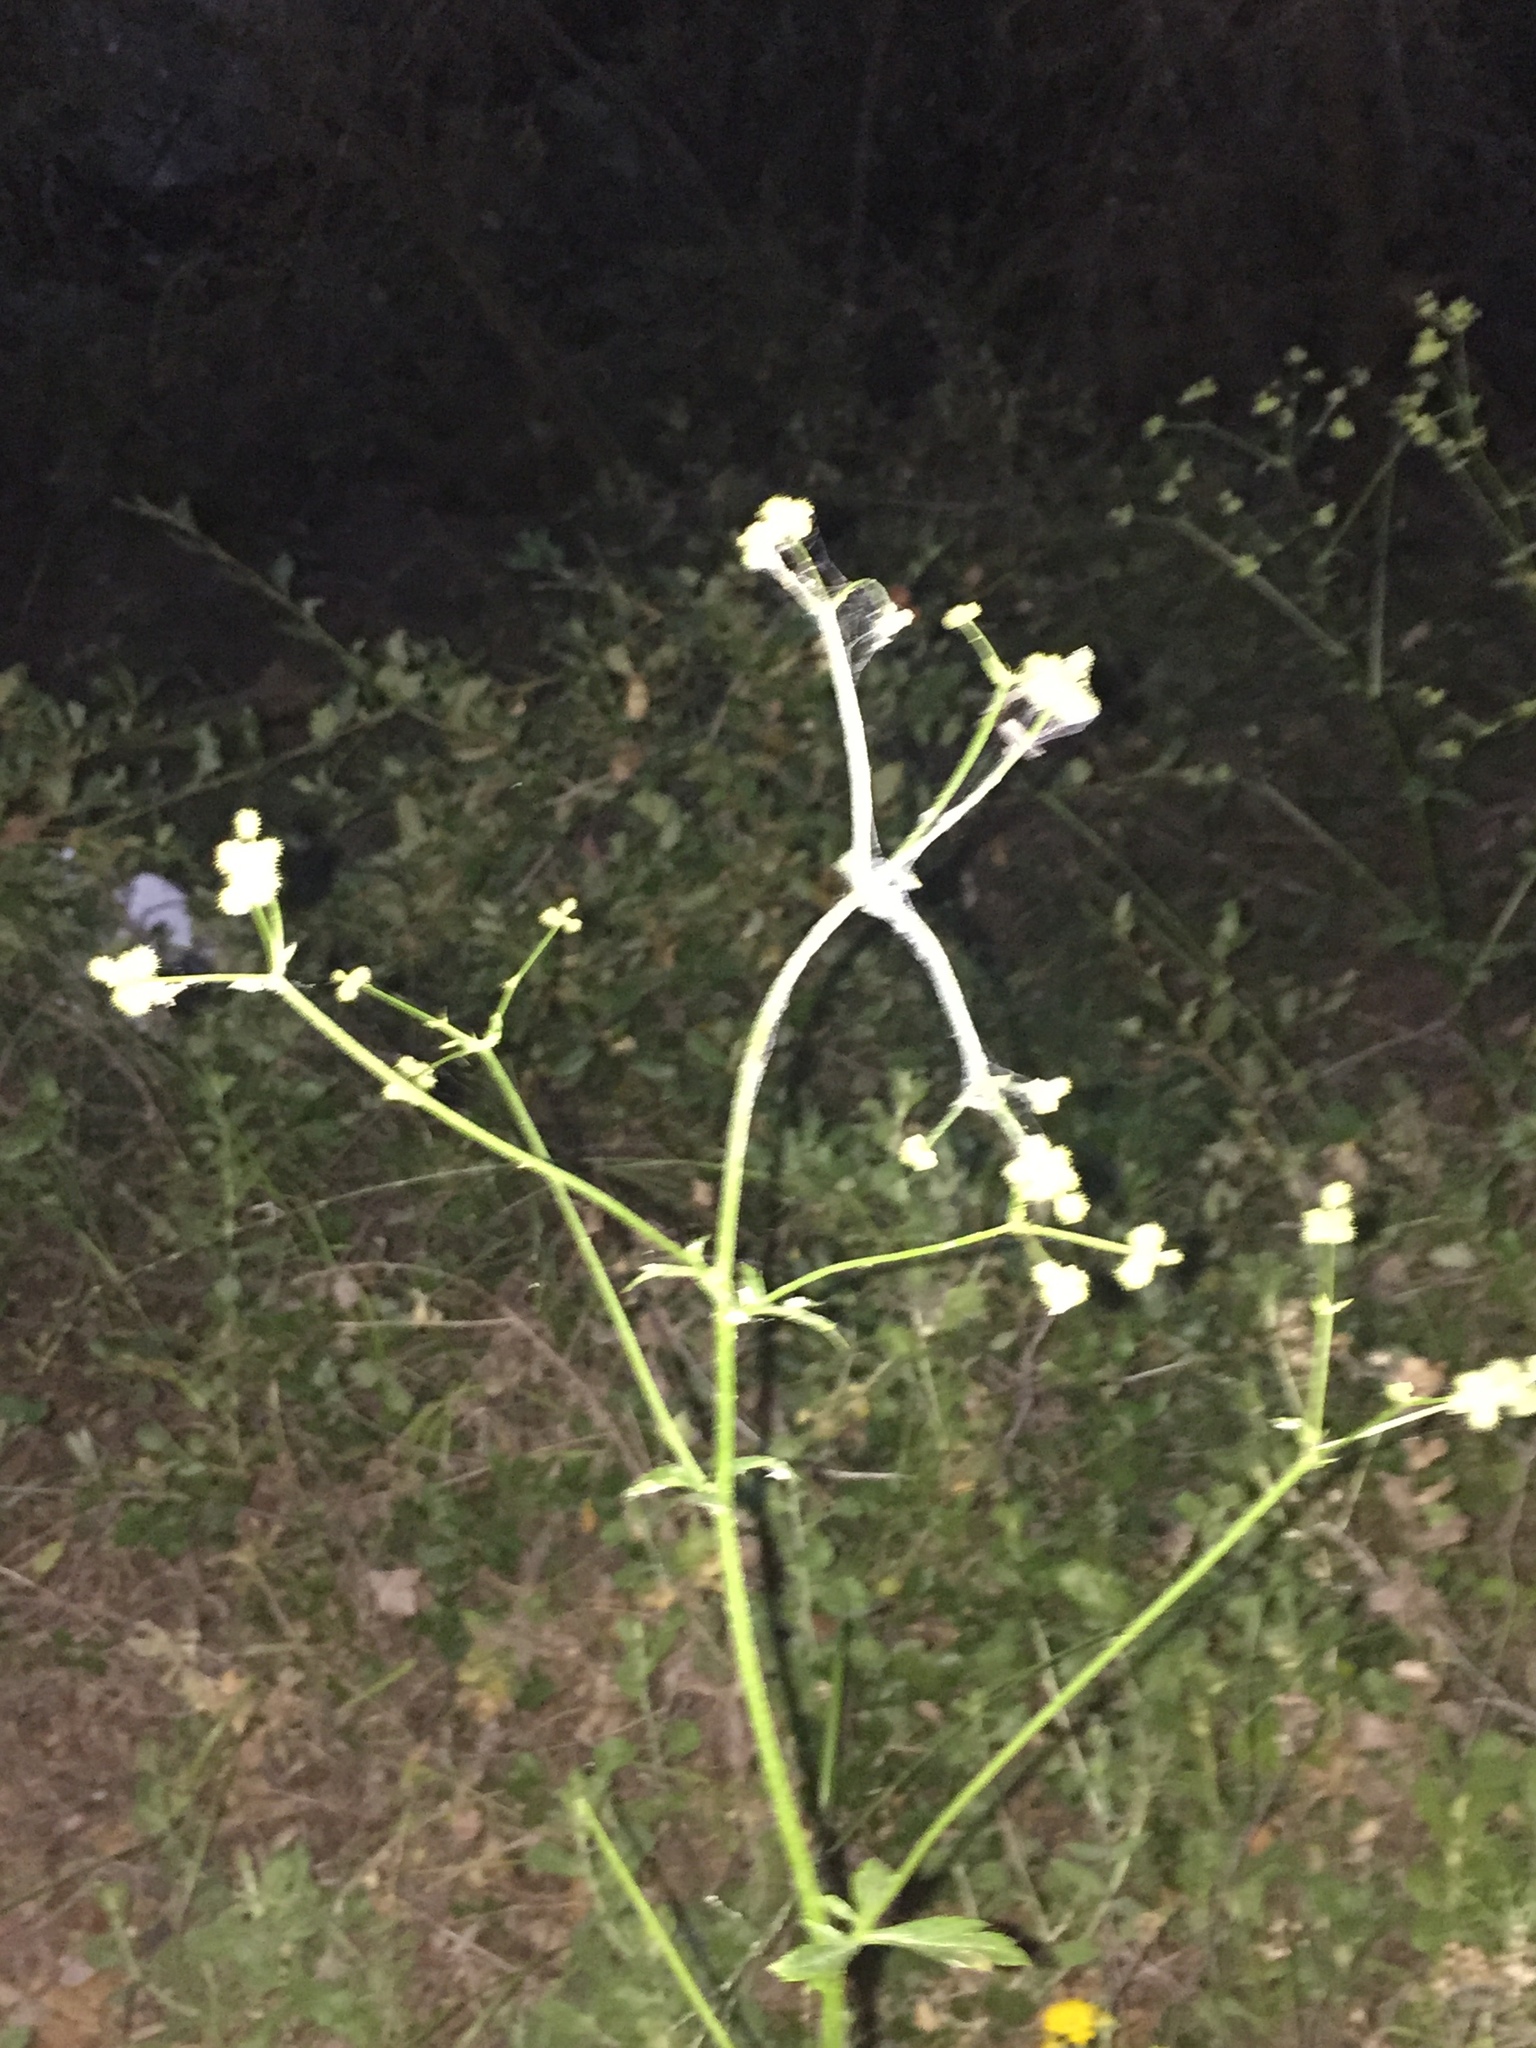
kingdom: Plantae
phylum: Tracheophyta
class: Magnoliopsida
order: Apiales
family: Apiaceae
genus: Sanicula
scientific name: Sanicula crassicaulis
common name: Western snakeroot
